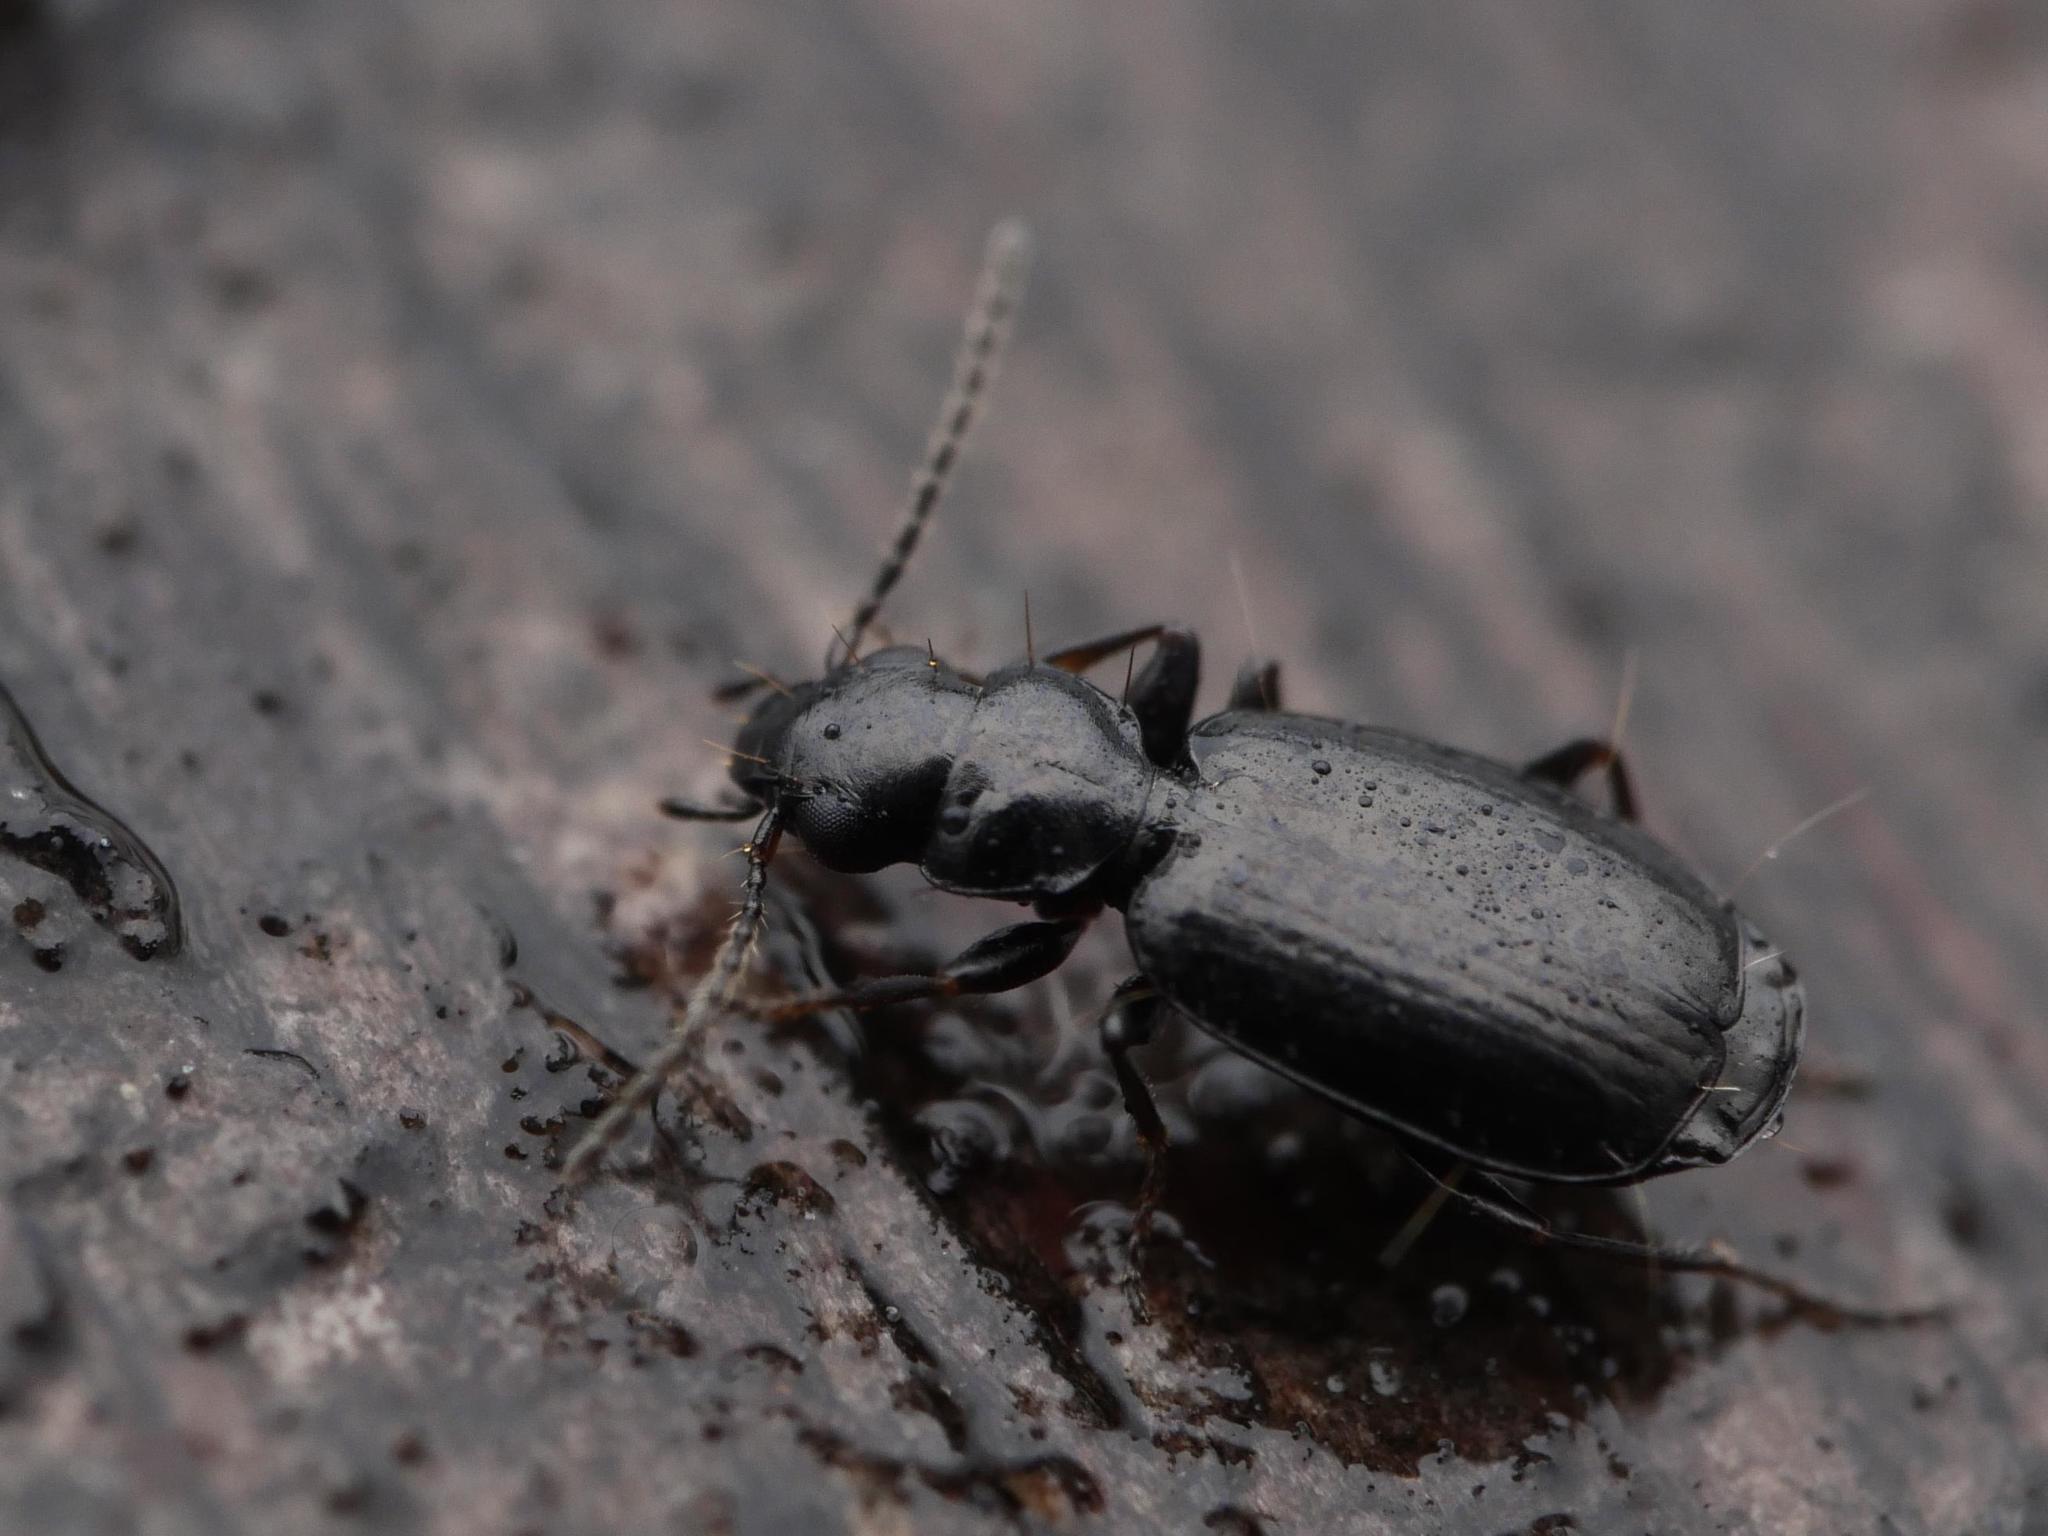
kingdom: Animalia
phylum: Arthropoda
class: Insecta
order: Coleoptera
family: Carabidae
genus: Syntomus
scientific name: Syntomus truncatellus
